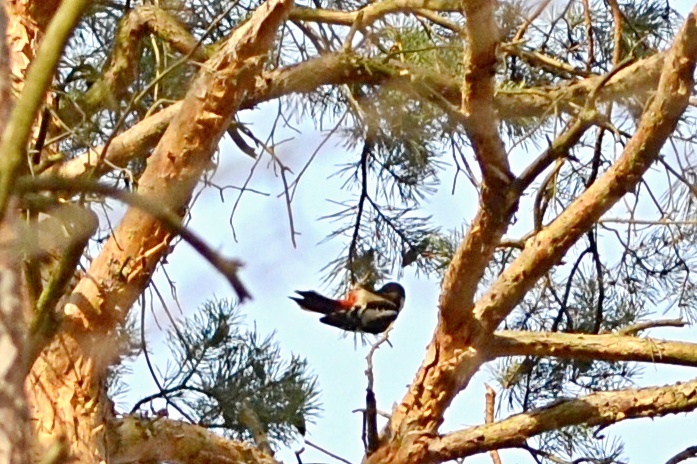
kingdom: Animalia
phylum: Chordata
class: Aves
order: Piciformes
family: Picidae
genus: Dendrocopos
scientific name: Dendrocopos major
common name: Great spotted woodpecker
